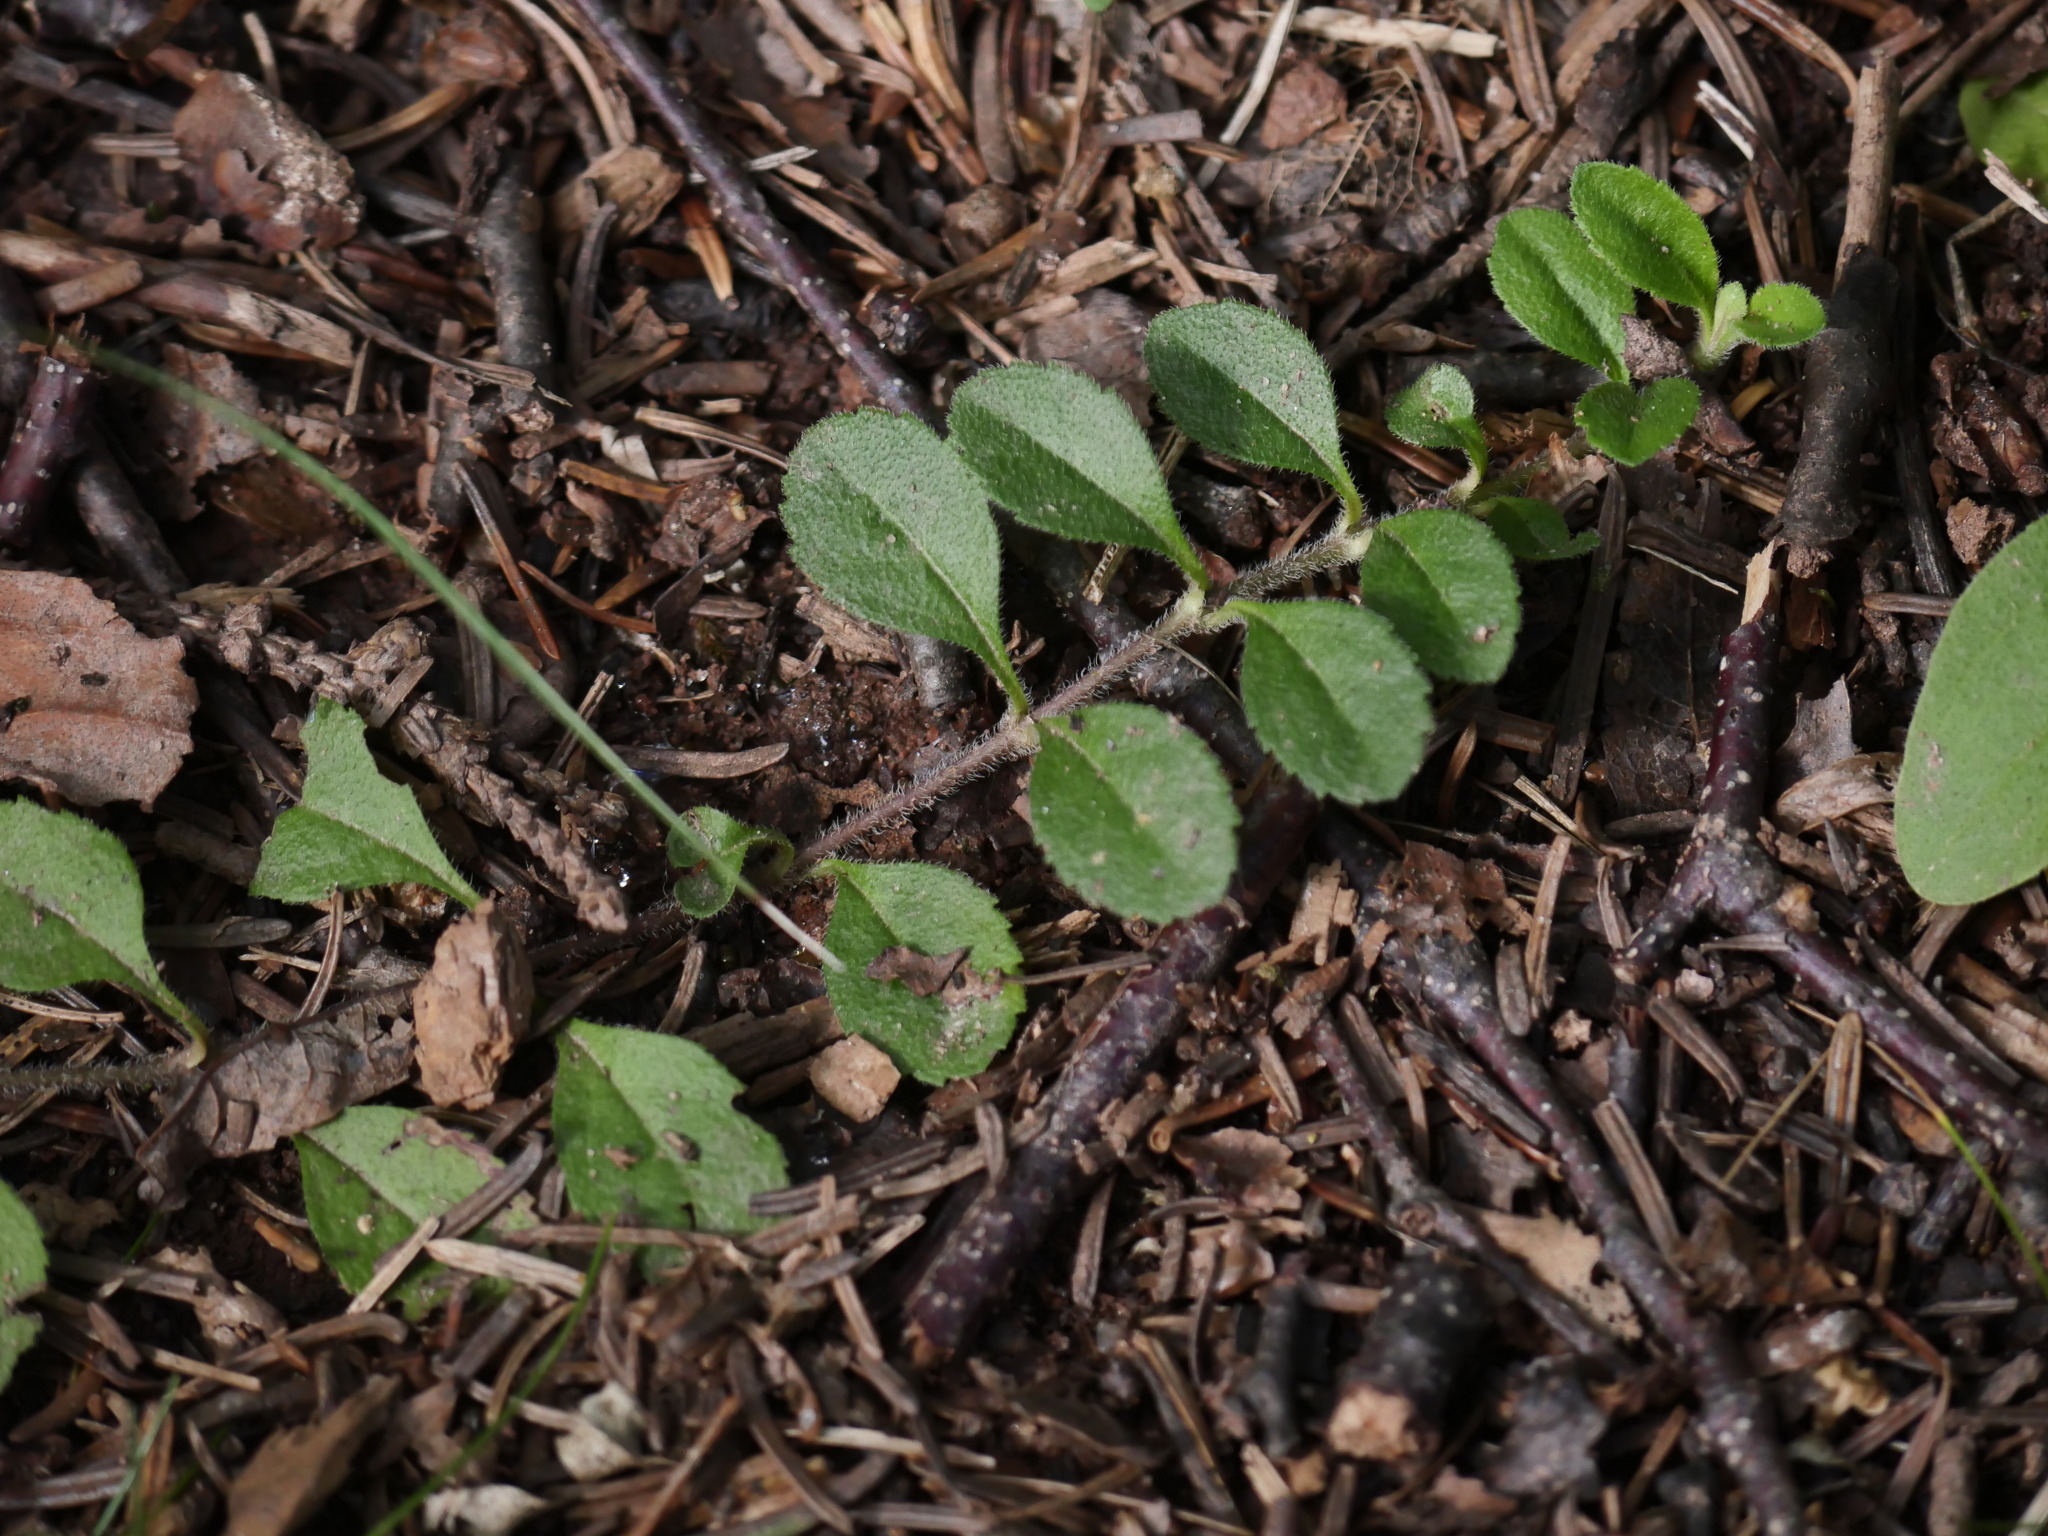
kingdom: Plantae
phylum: Tracheophyta
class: Magnoliopsida
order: Lamiales
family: Plantaginaceae
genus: Veronica
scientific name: Veronica officinalis
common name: Common speedwell
